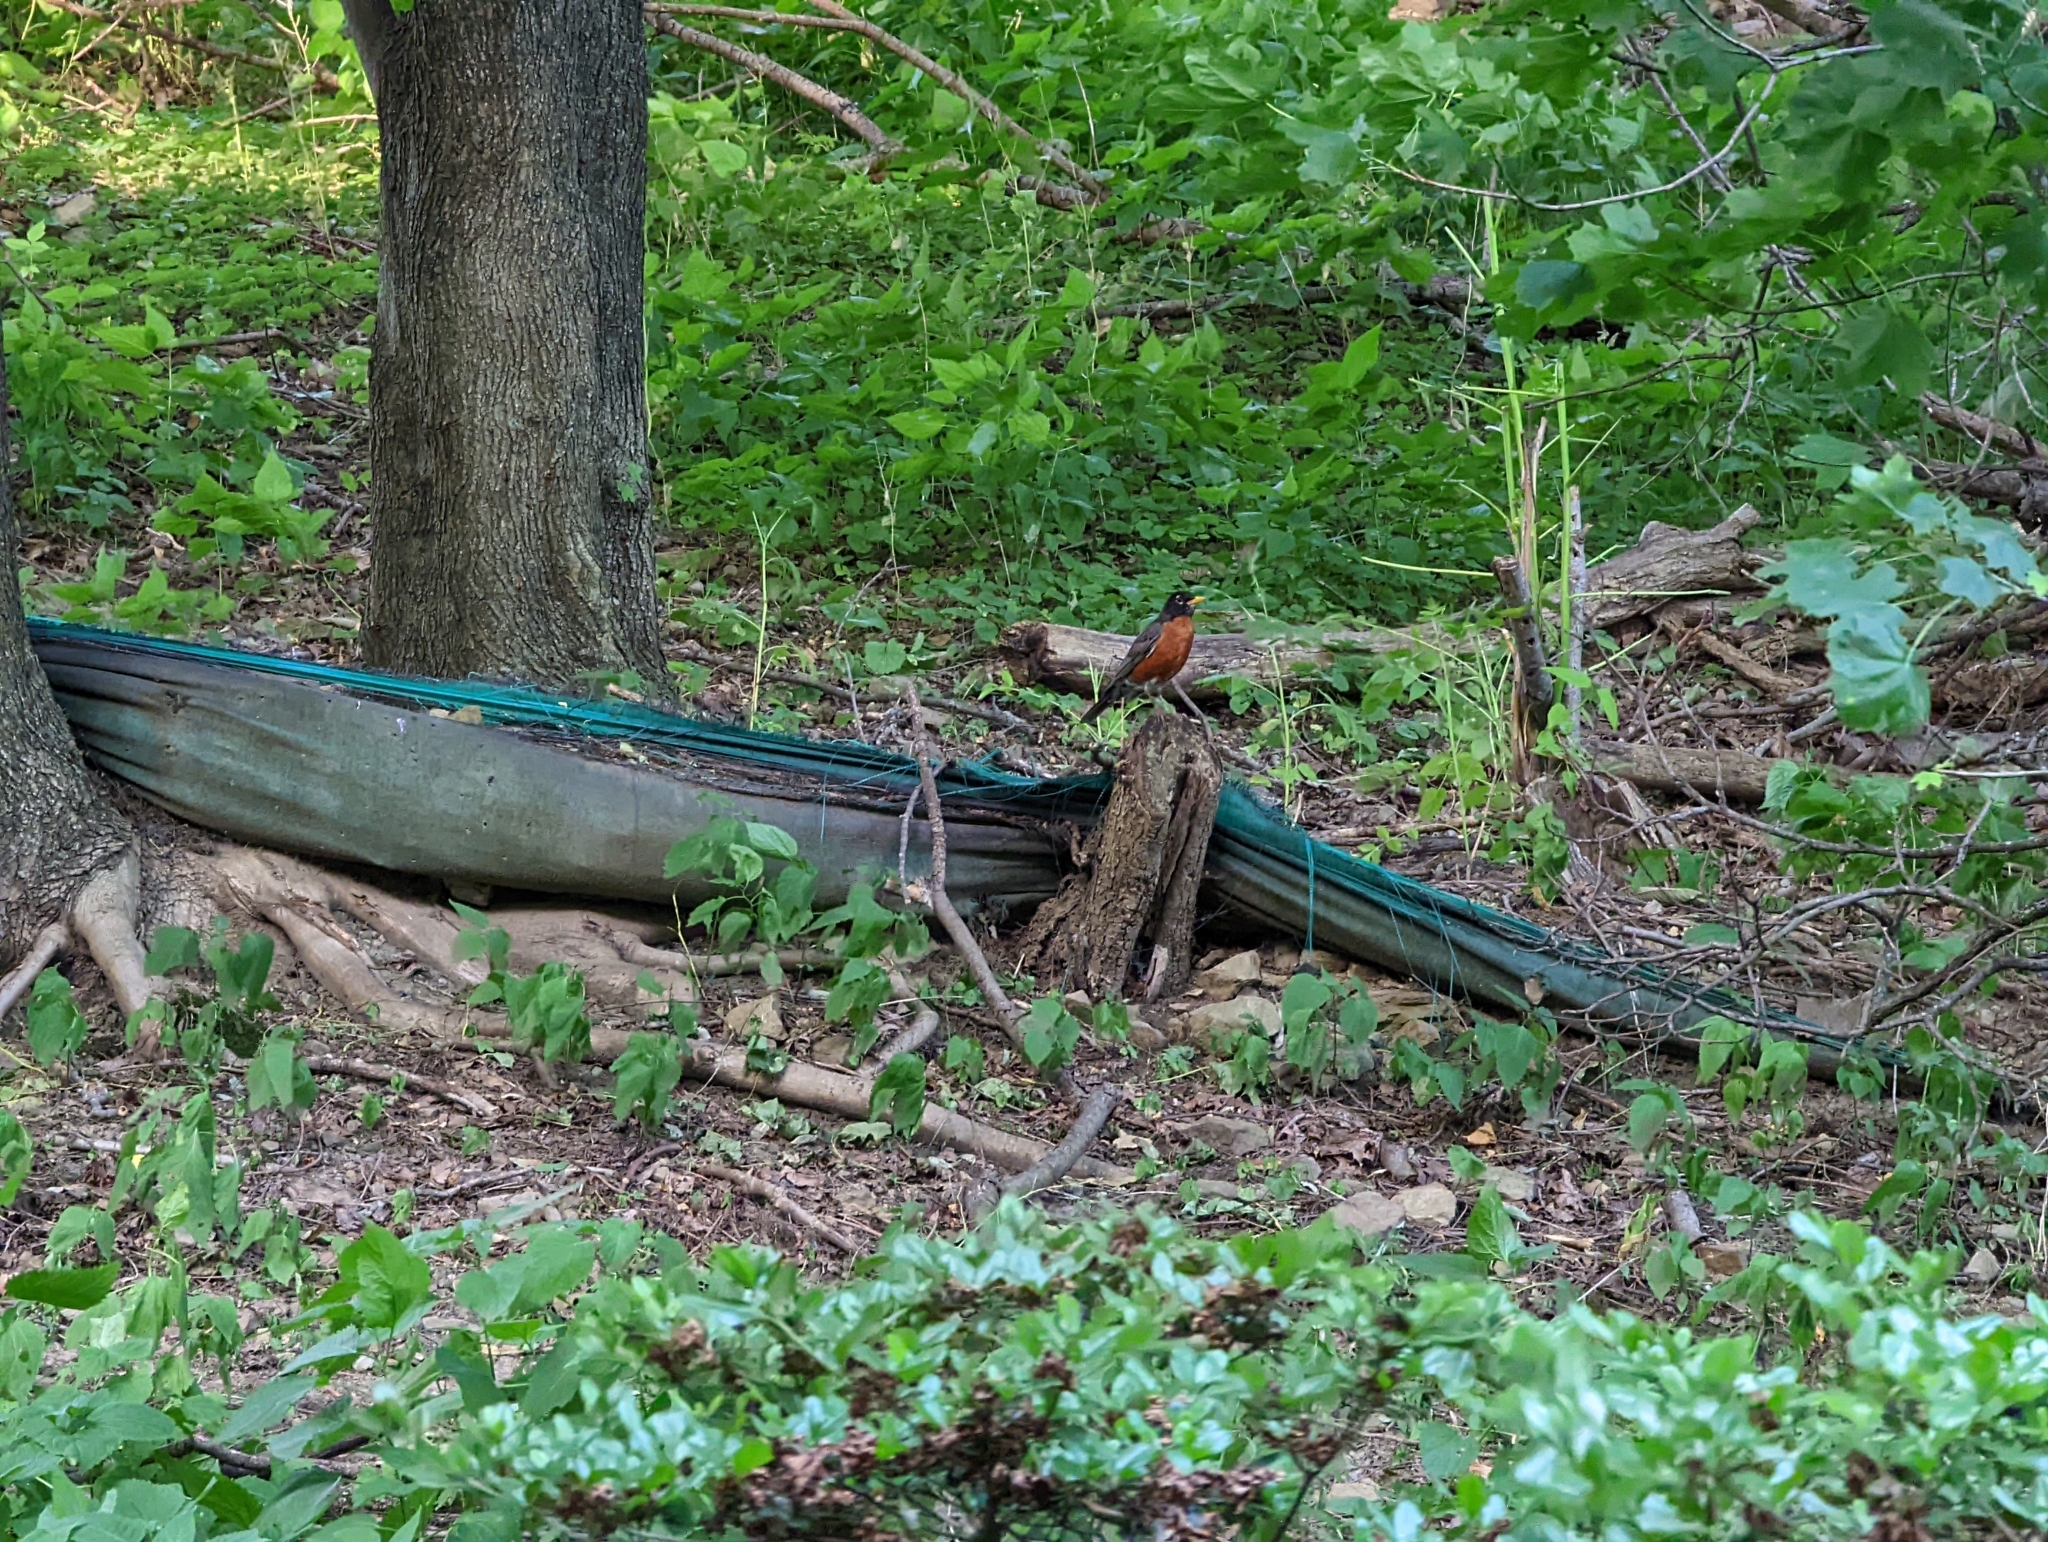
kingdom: Animalia
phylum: Chordata
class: Aves
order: Passeriformes
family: Turdidae
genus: Turdus
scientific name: Turdus migratorius
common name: American robin
